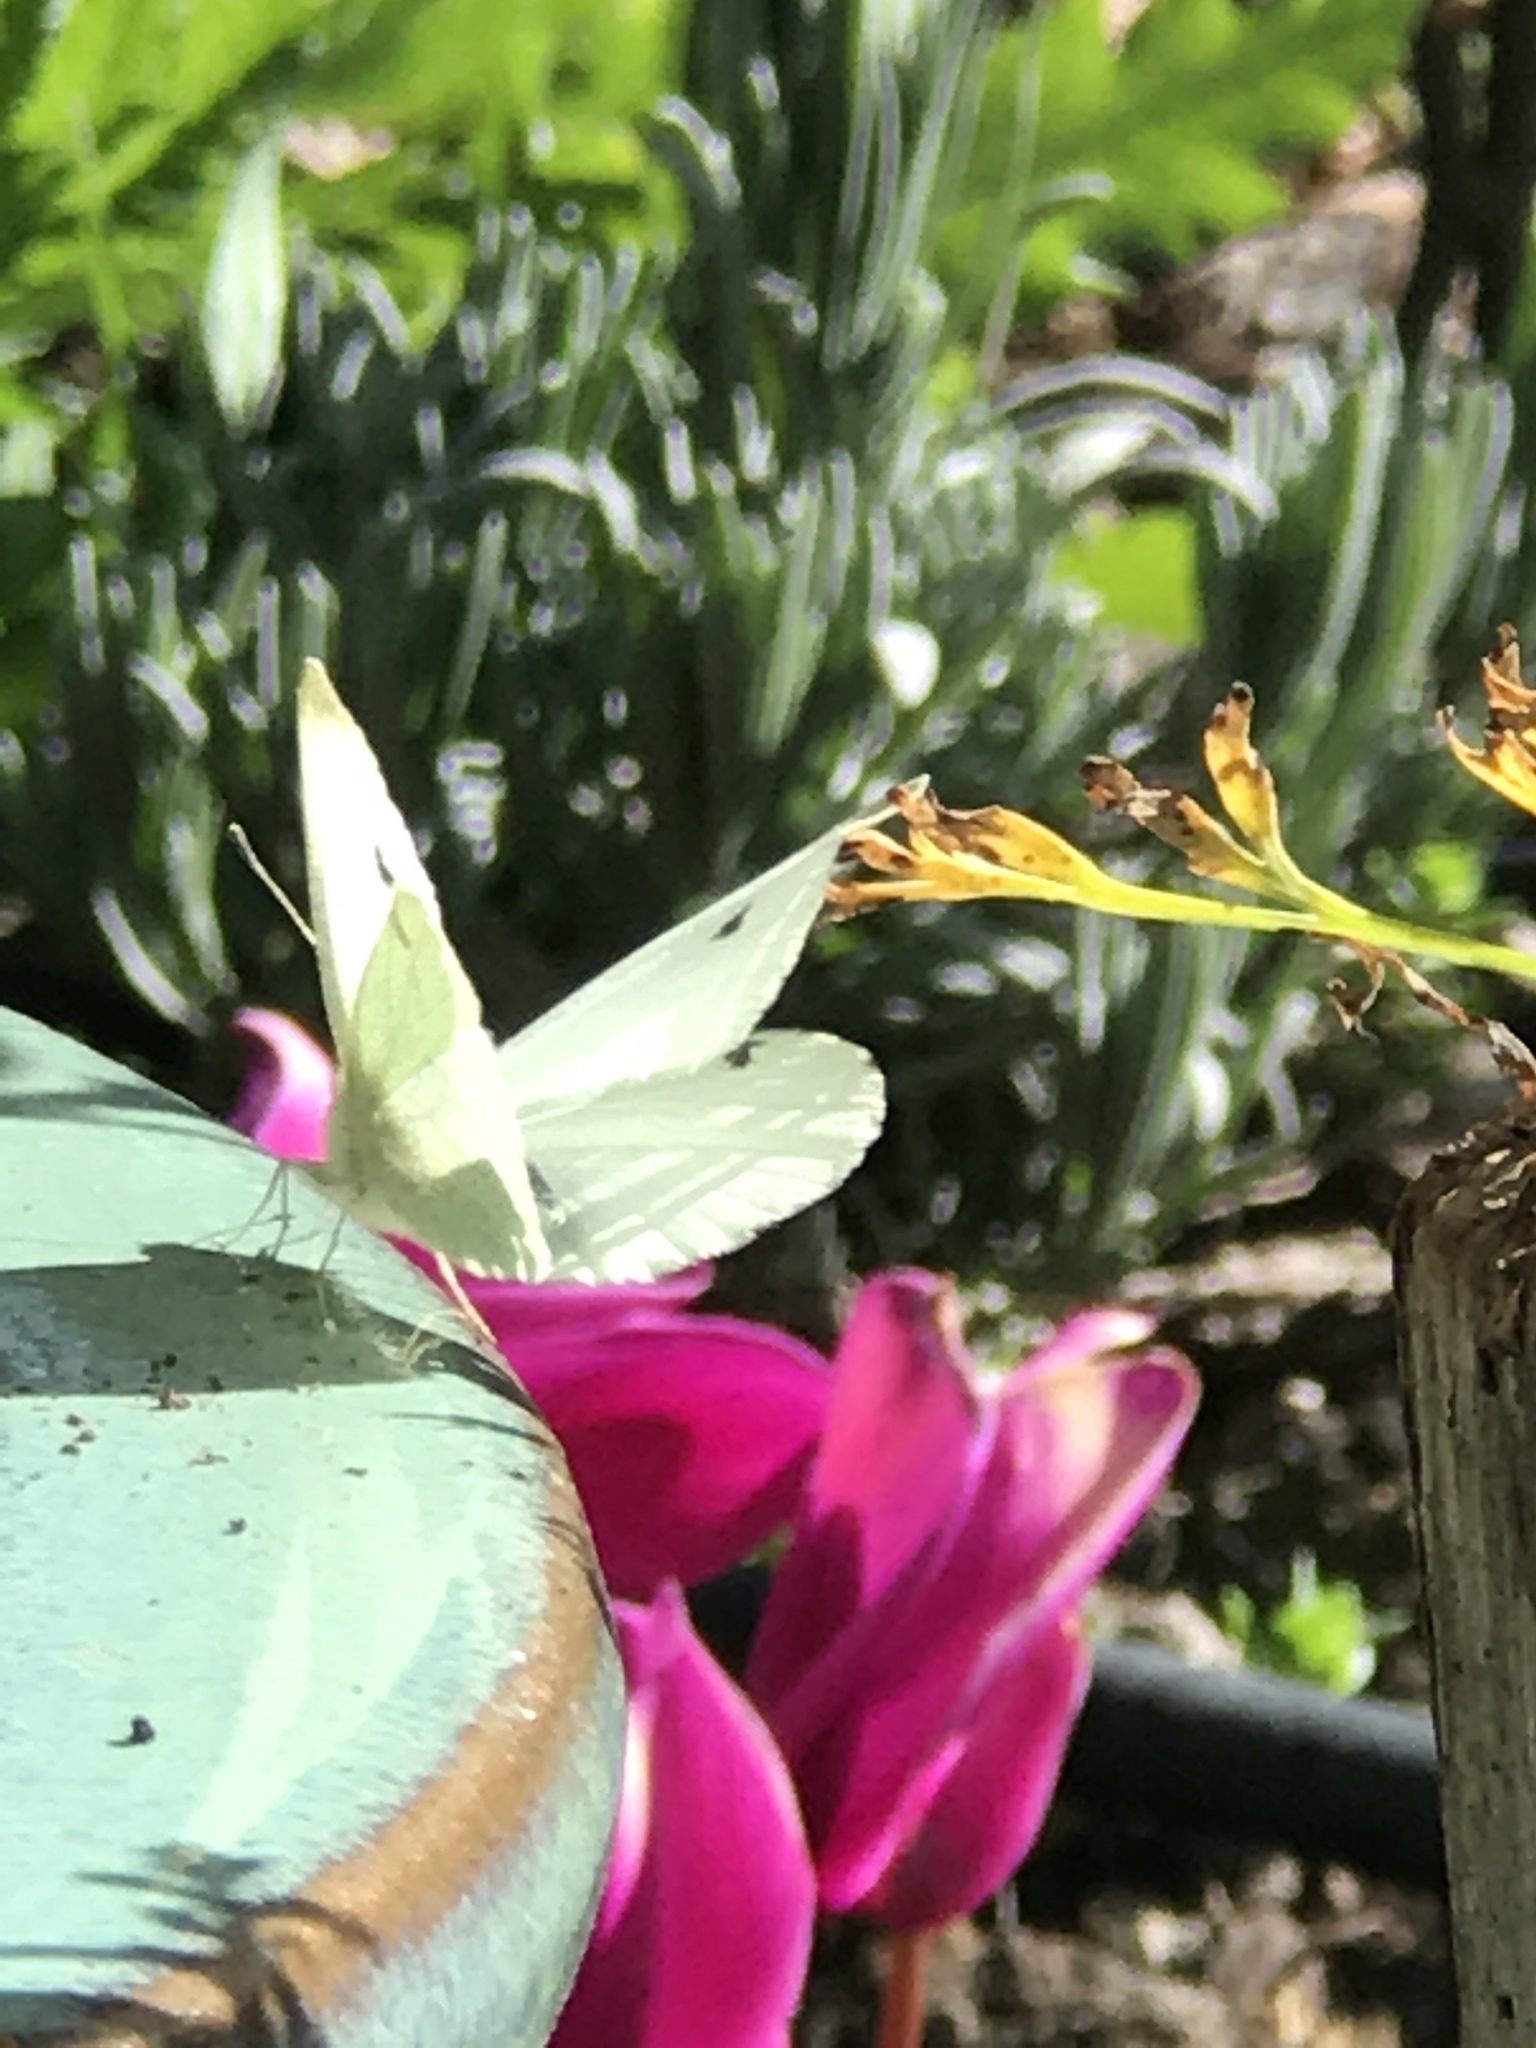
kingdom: Animalia
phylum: Arthropoda
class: Insecta
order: Lepidoptera
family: Pieridae
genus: Pieris
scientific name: Pieris rapae
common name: Small white
